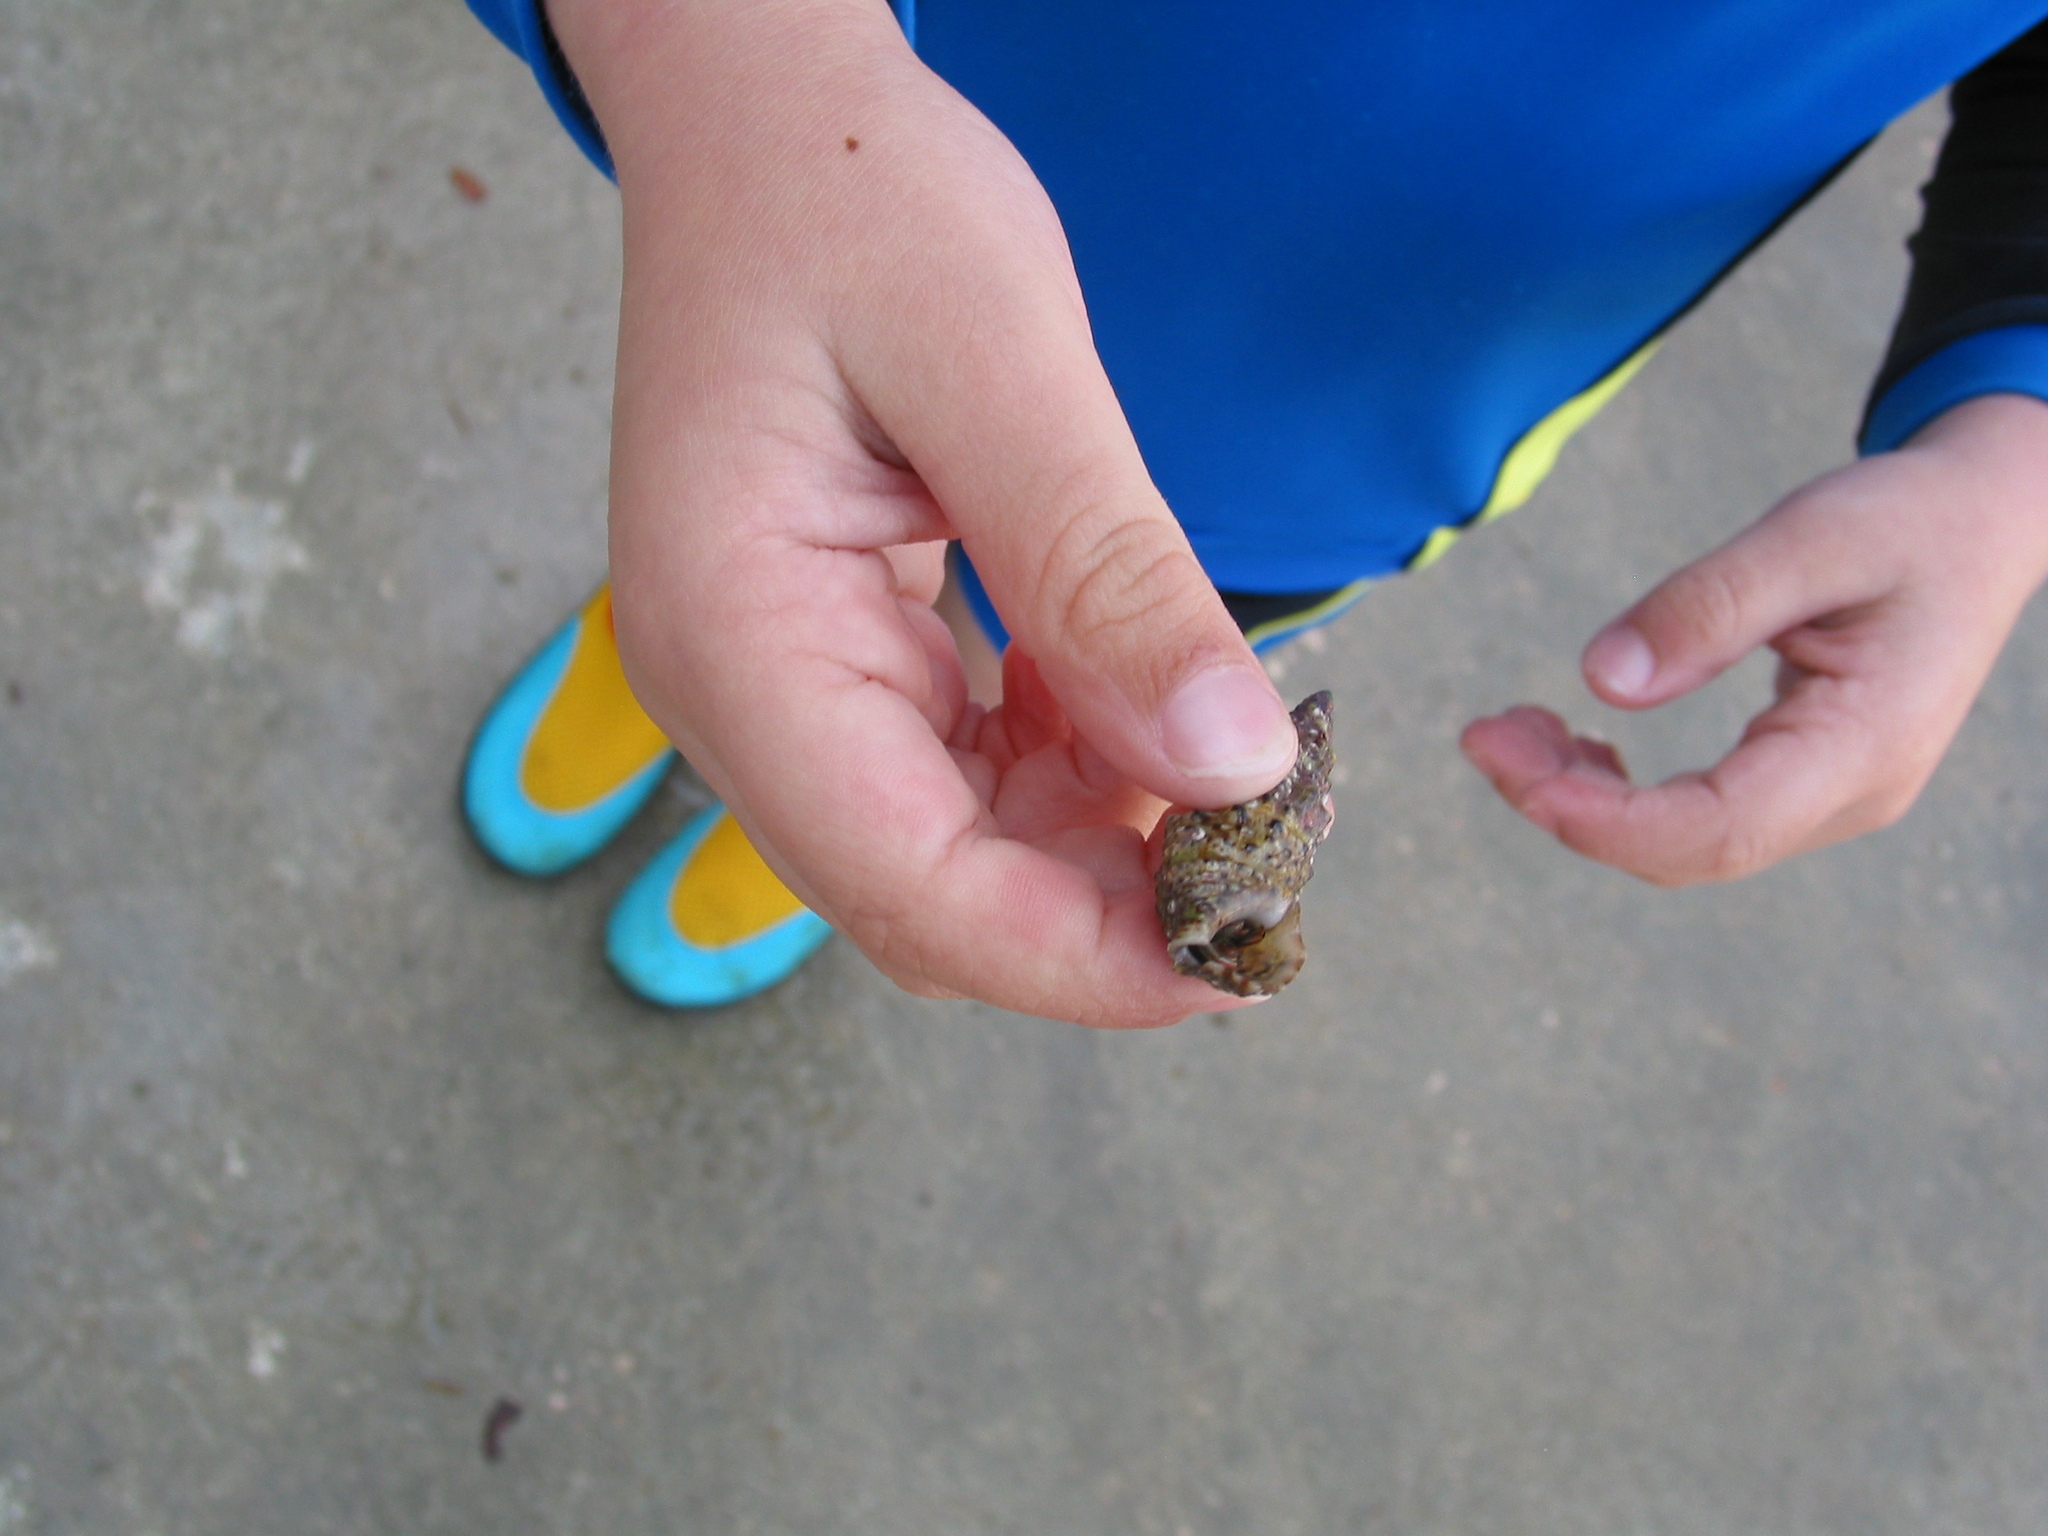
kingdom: Animalia
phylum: Arthropoda
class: Malacostraca
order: Decapoda
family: Diogenidae
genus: Clibanarius
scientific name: Clibanarius erythropus
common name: Hermit crab
